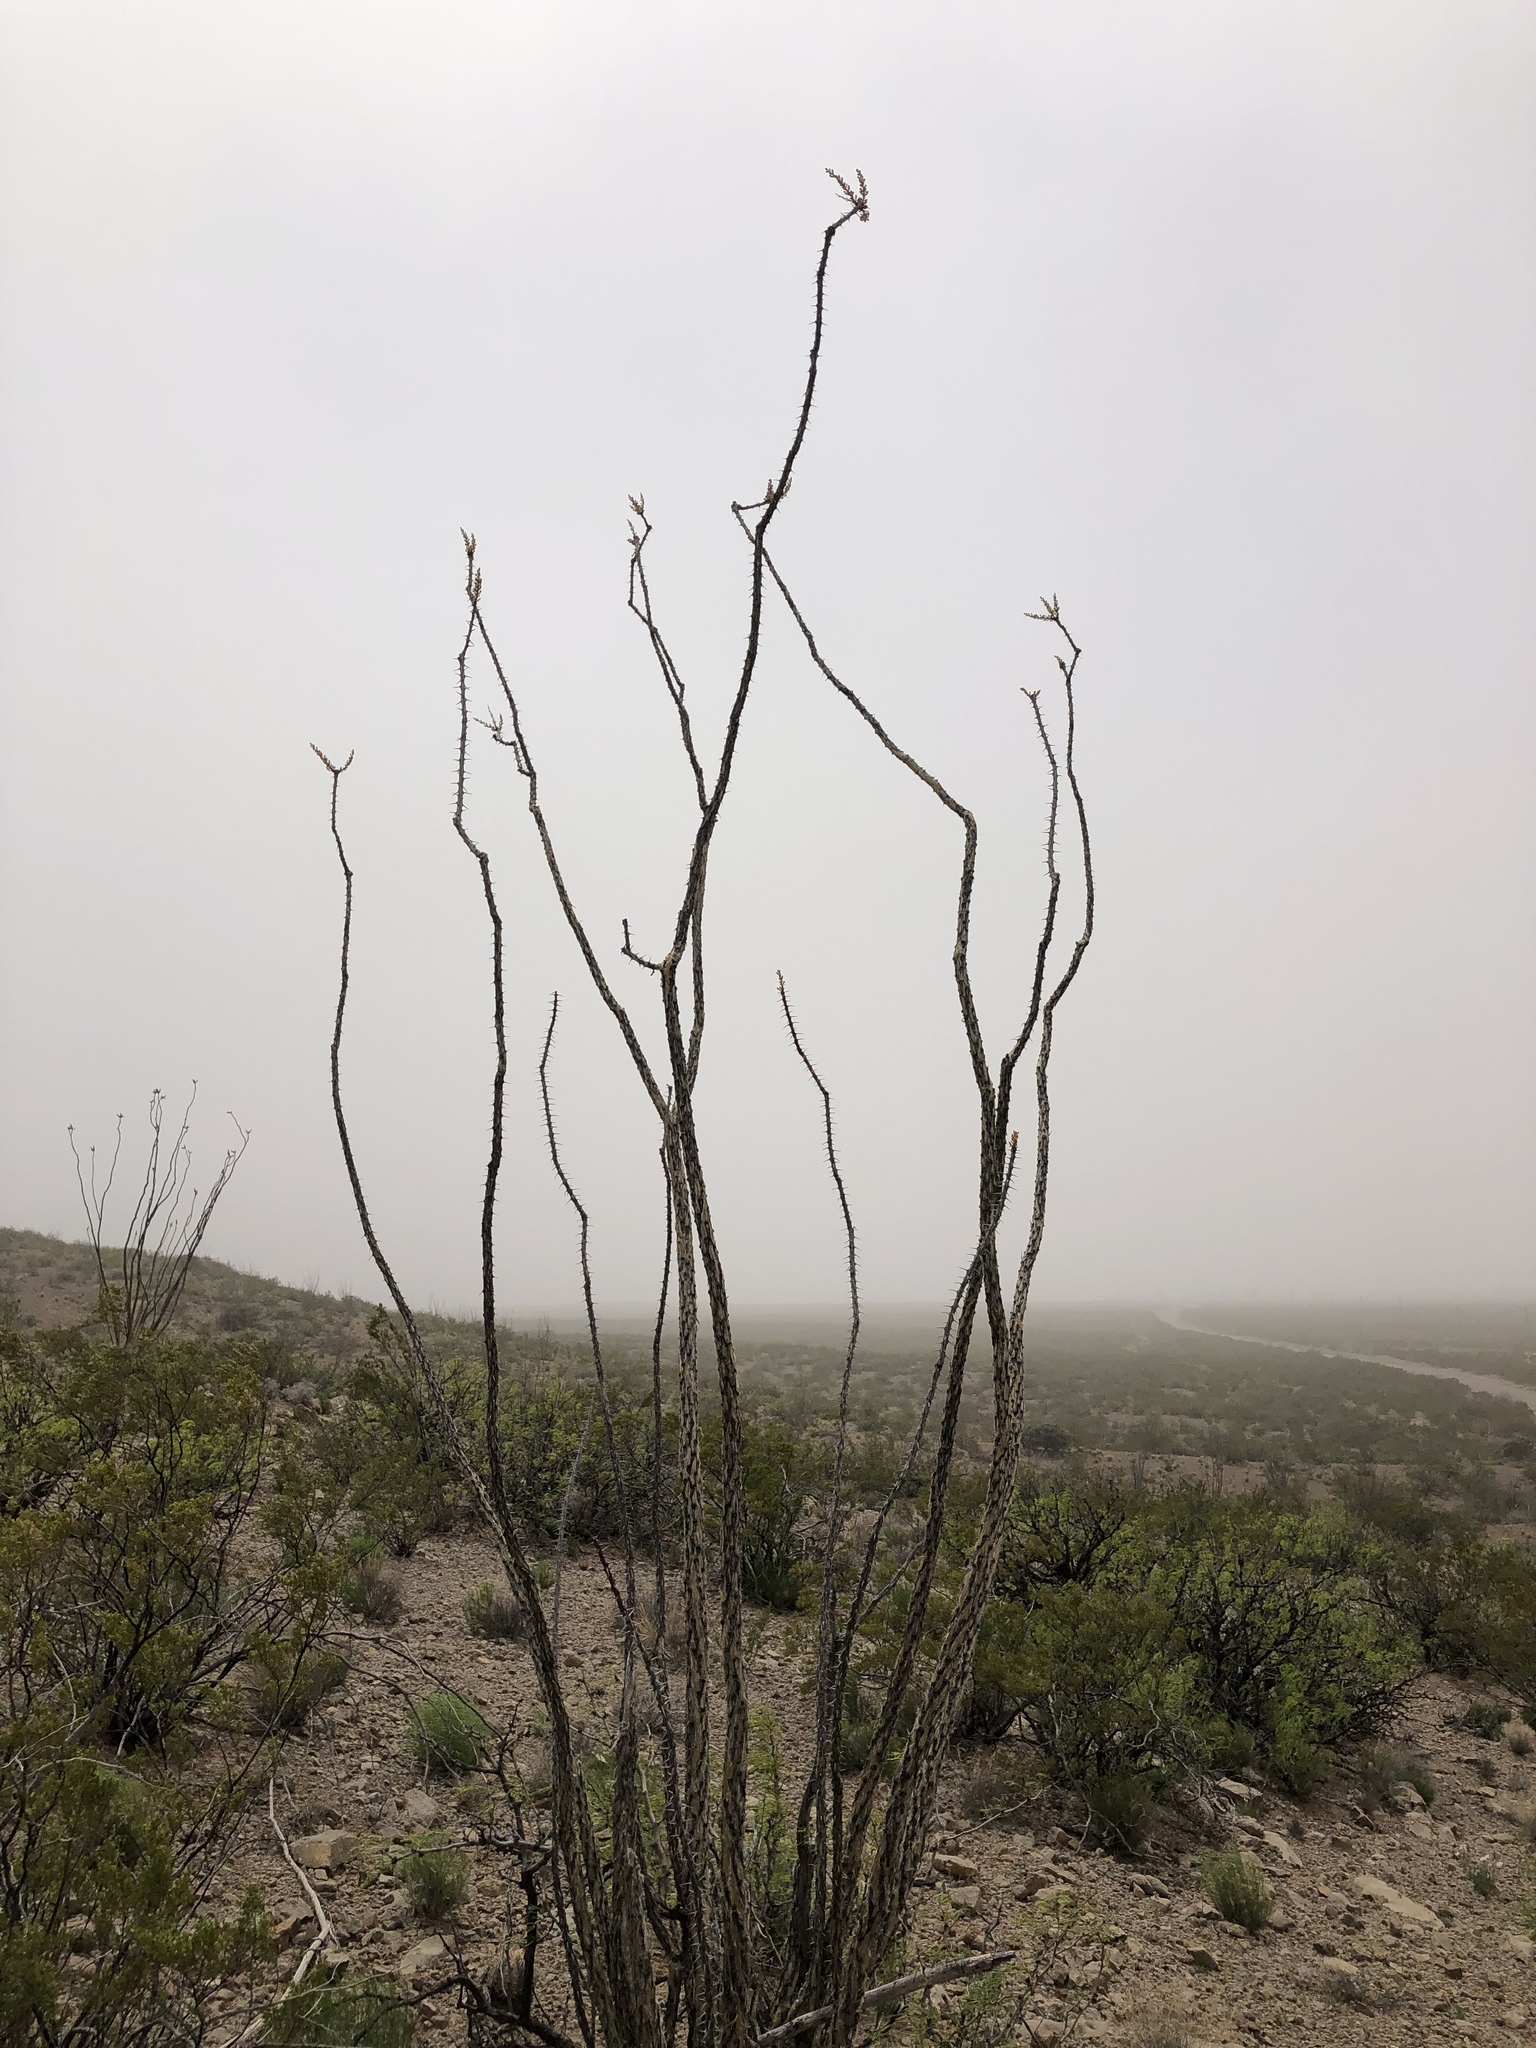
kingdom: Plantae
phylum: Tracheophyta
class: Magnoliopsida
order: Ericales
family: Fouquieriaceae
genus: Fouquieria
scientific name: Fouquieria splendens
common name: Vine-cactus
